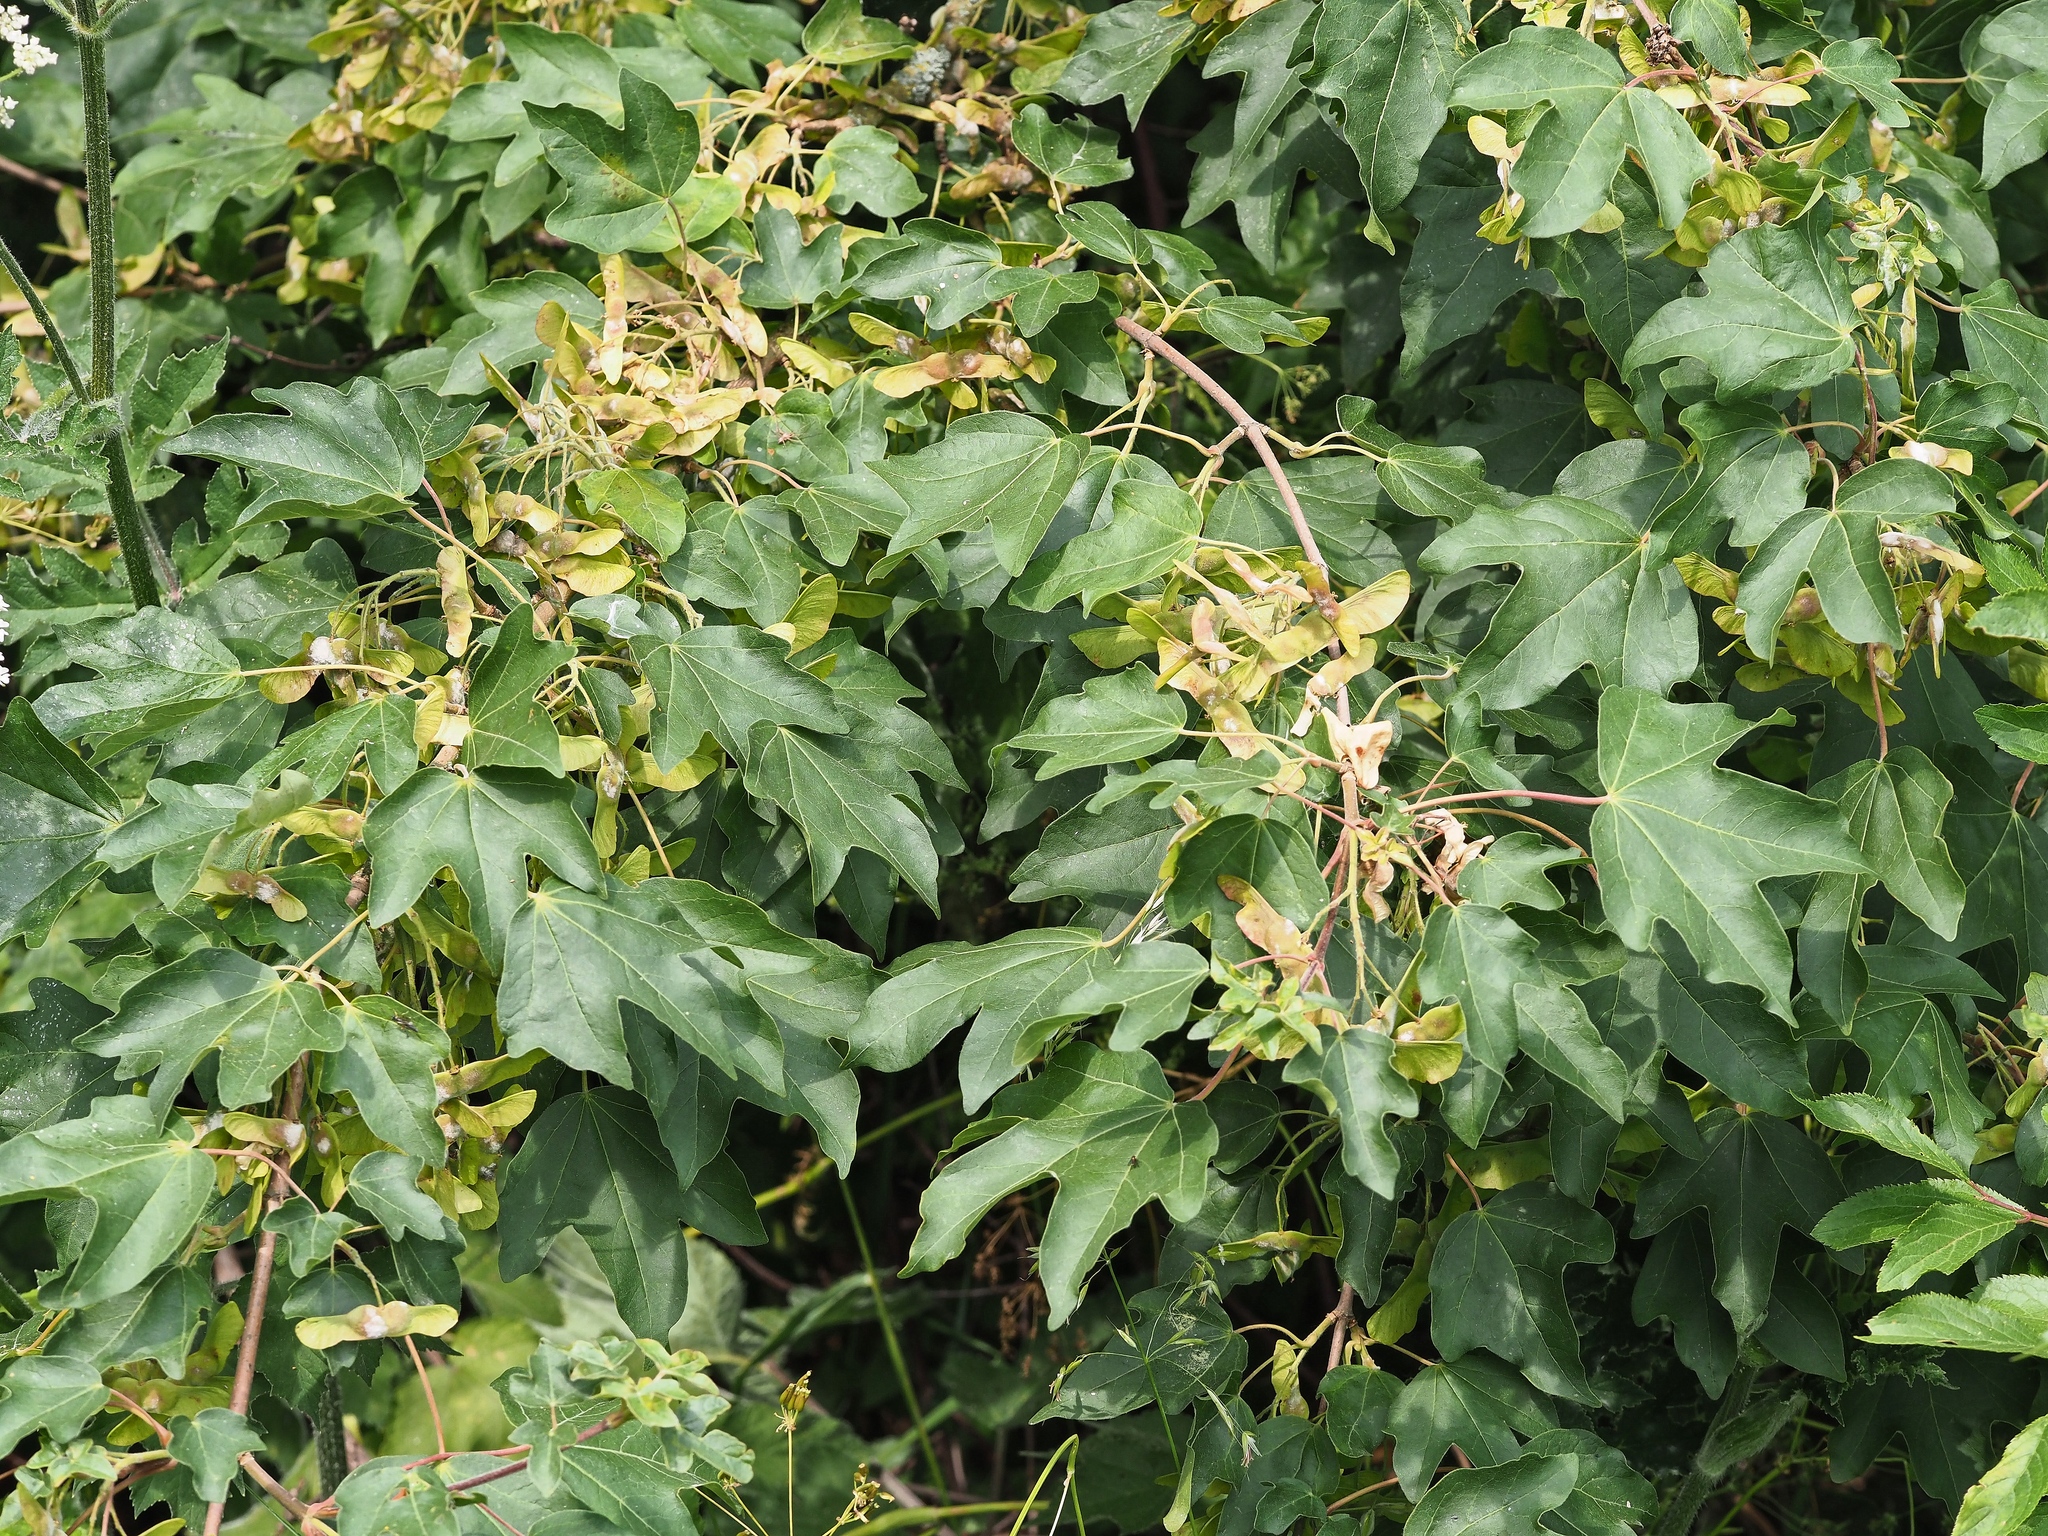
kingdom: Plantae
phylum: Tracheophyta
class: Magnoliopsida
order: Sapindales
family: Sapindaceae
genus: Acer
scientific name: Acer campestre
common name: Field maple
